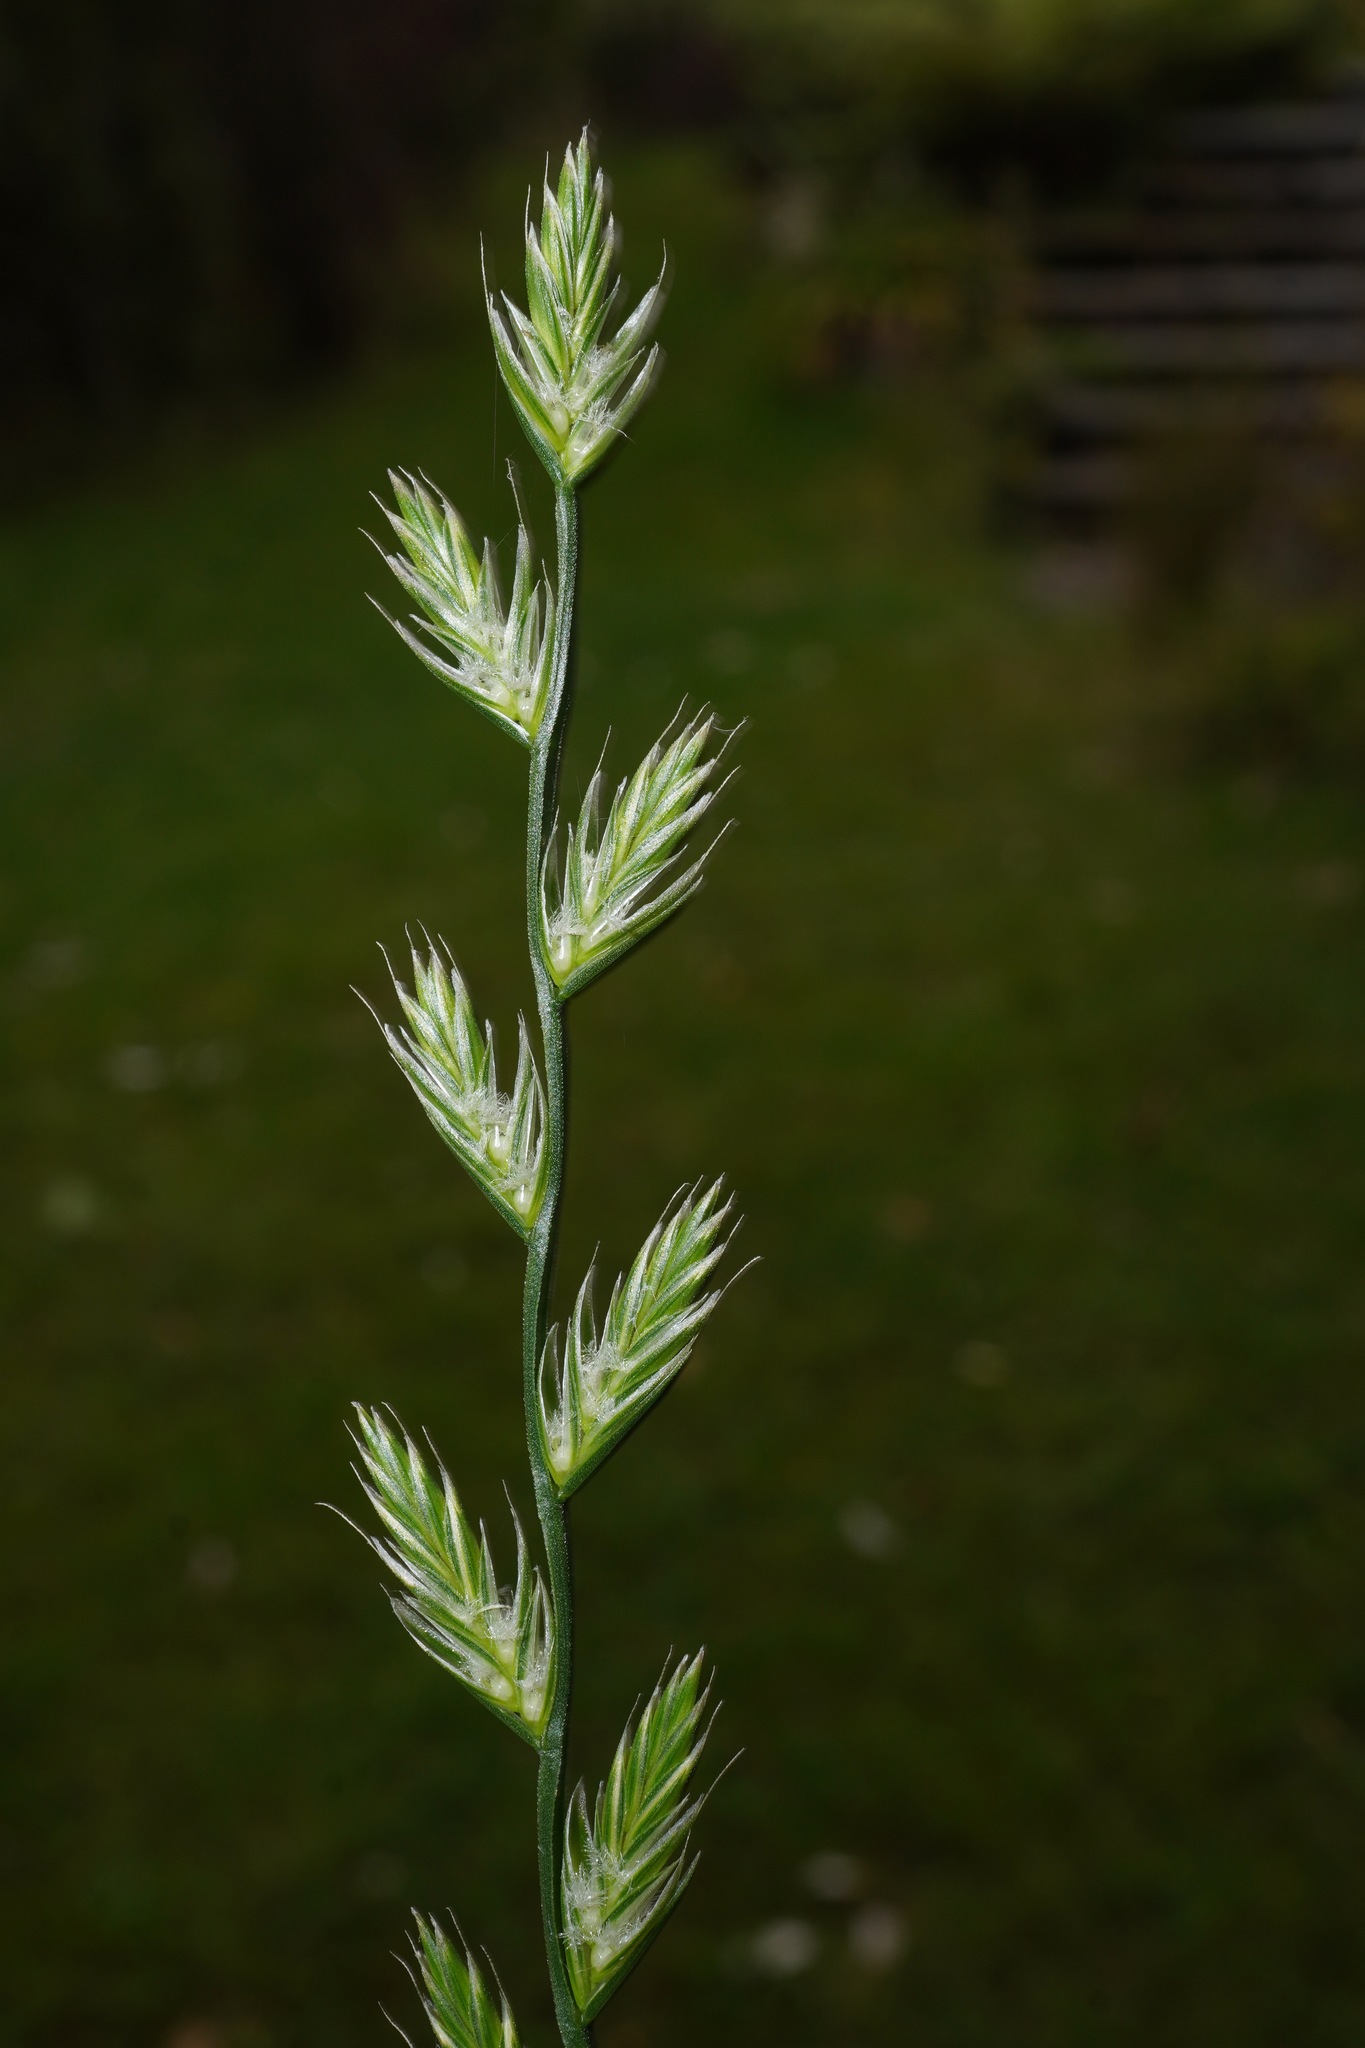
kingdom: Plantae
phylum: Tracheophyta
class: Liliopsida
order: Poales
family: Poaceae
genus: Lolium
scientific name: Lolium perenne
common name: Perennial ryegrass
